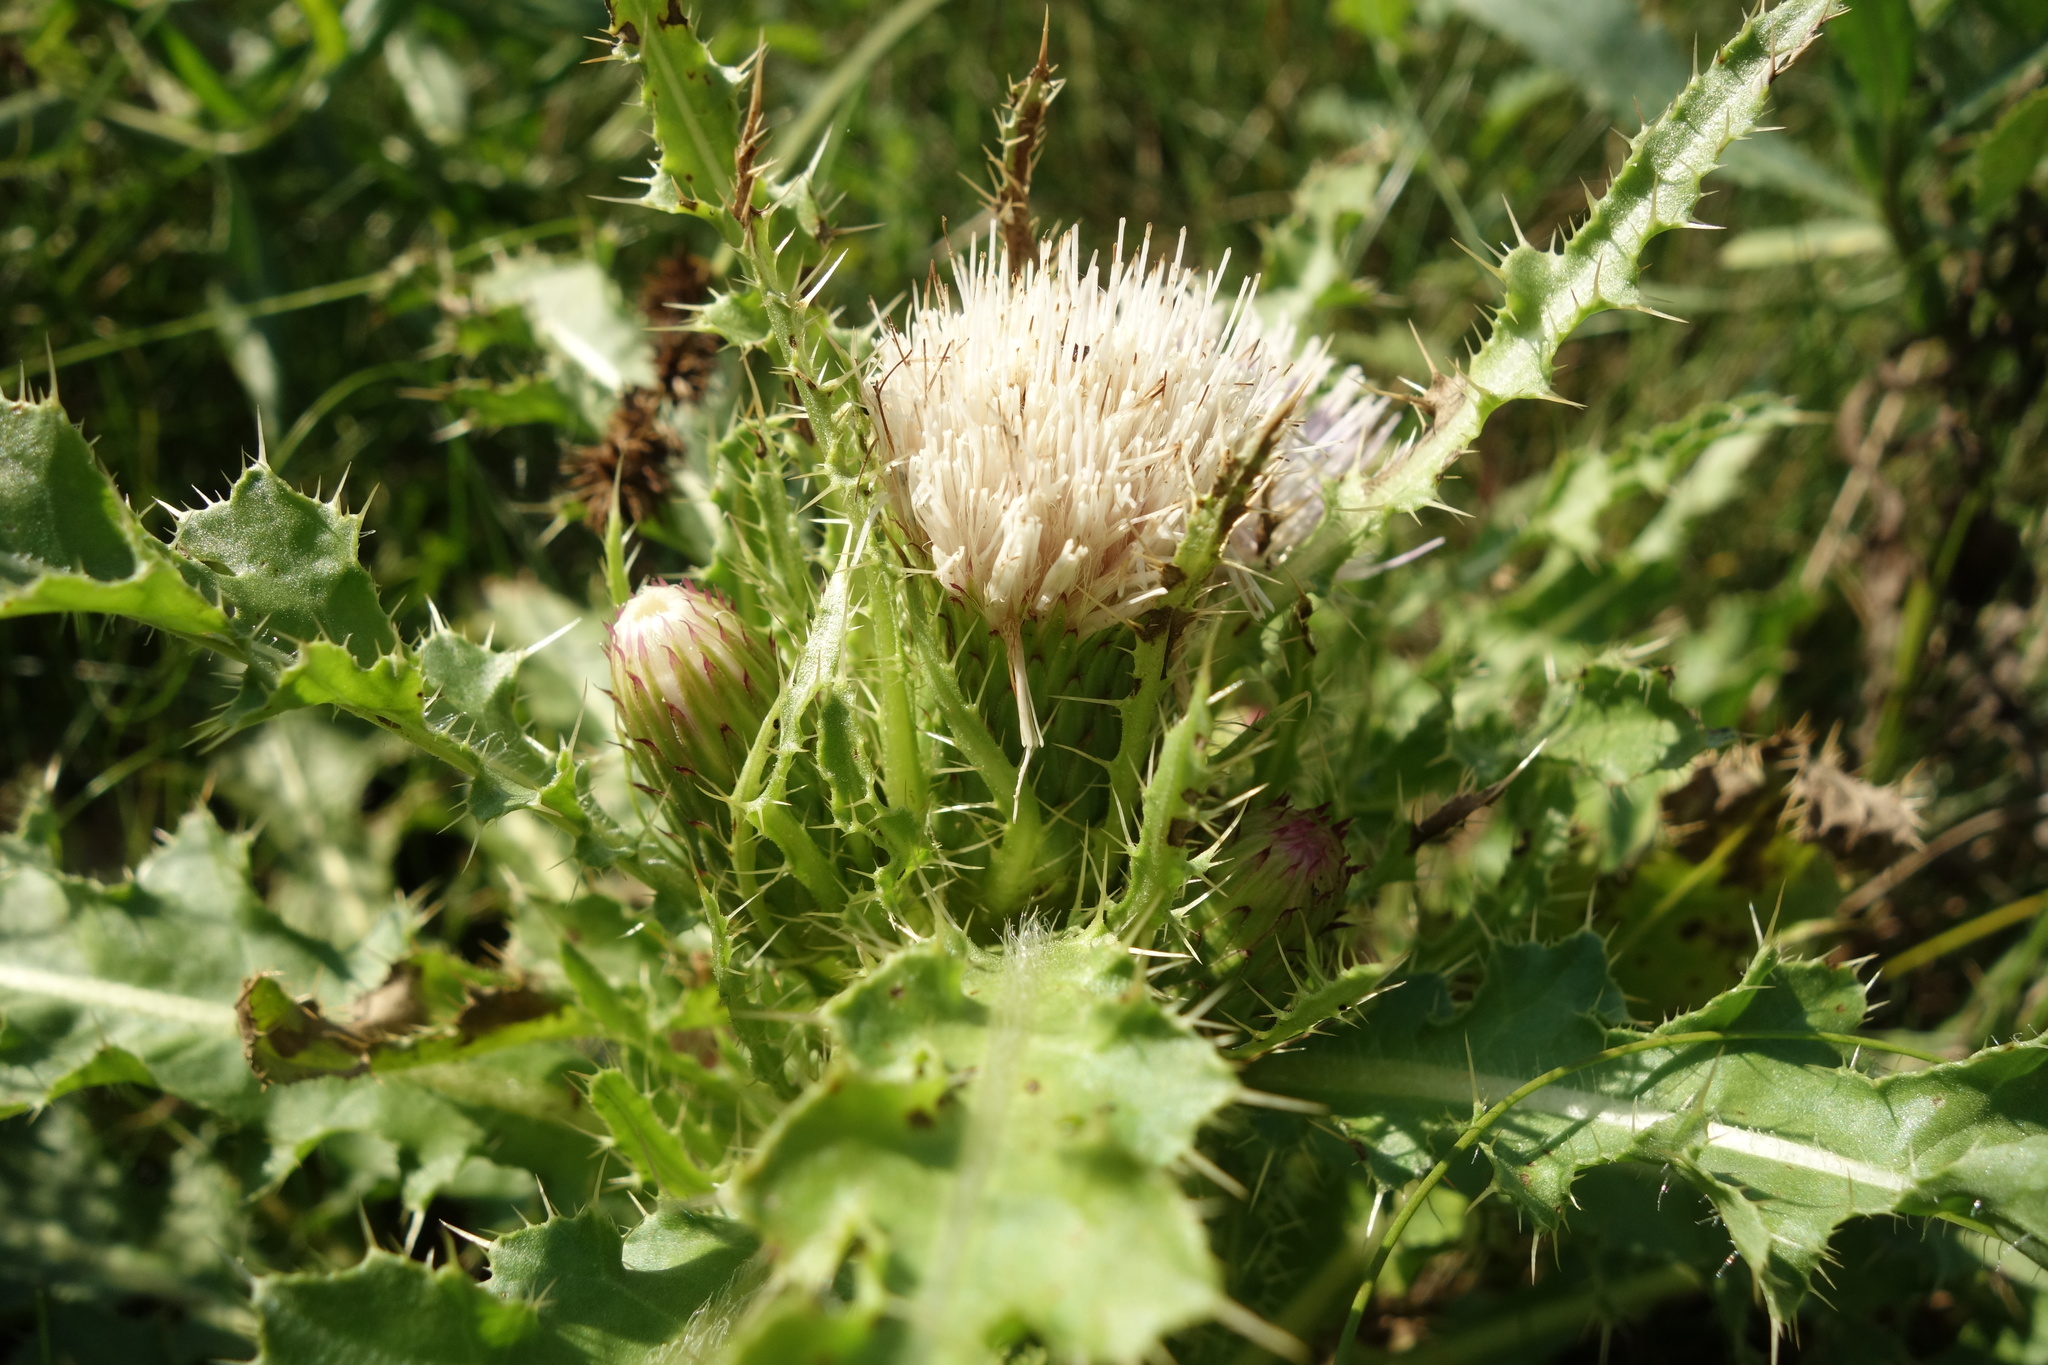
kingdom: Plantae
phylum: Tracheophyta
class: Magnoliopsida
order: Asterales
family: Asteraceae
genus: Cirsium
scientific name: Cirsium esculentum
